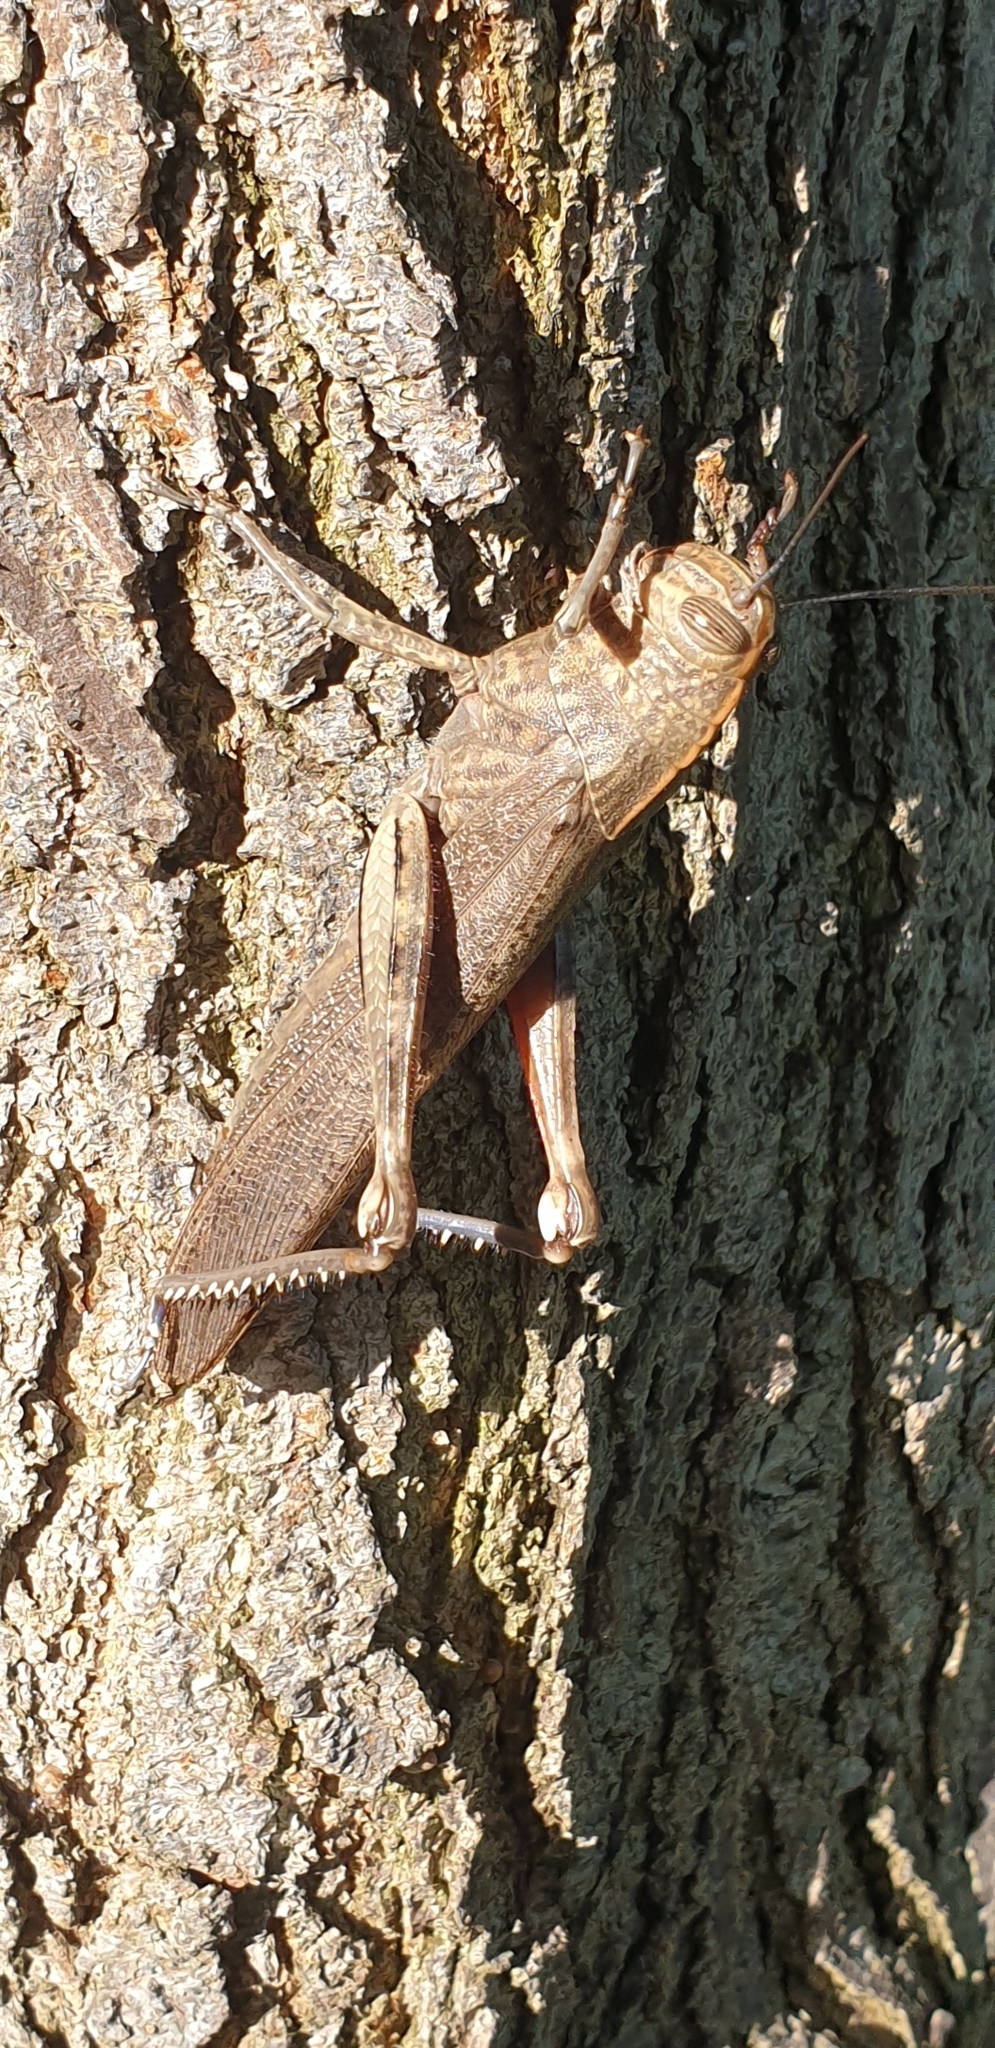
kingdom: Animalia
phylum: Arthropoda
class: Insecta
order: Orthoptera
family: Acrididae
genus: Anacridium
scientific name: Anacridium aegyptium
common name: Egyptian grasshopper
